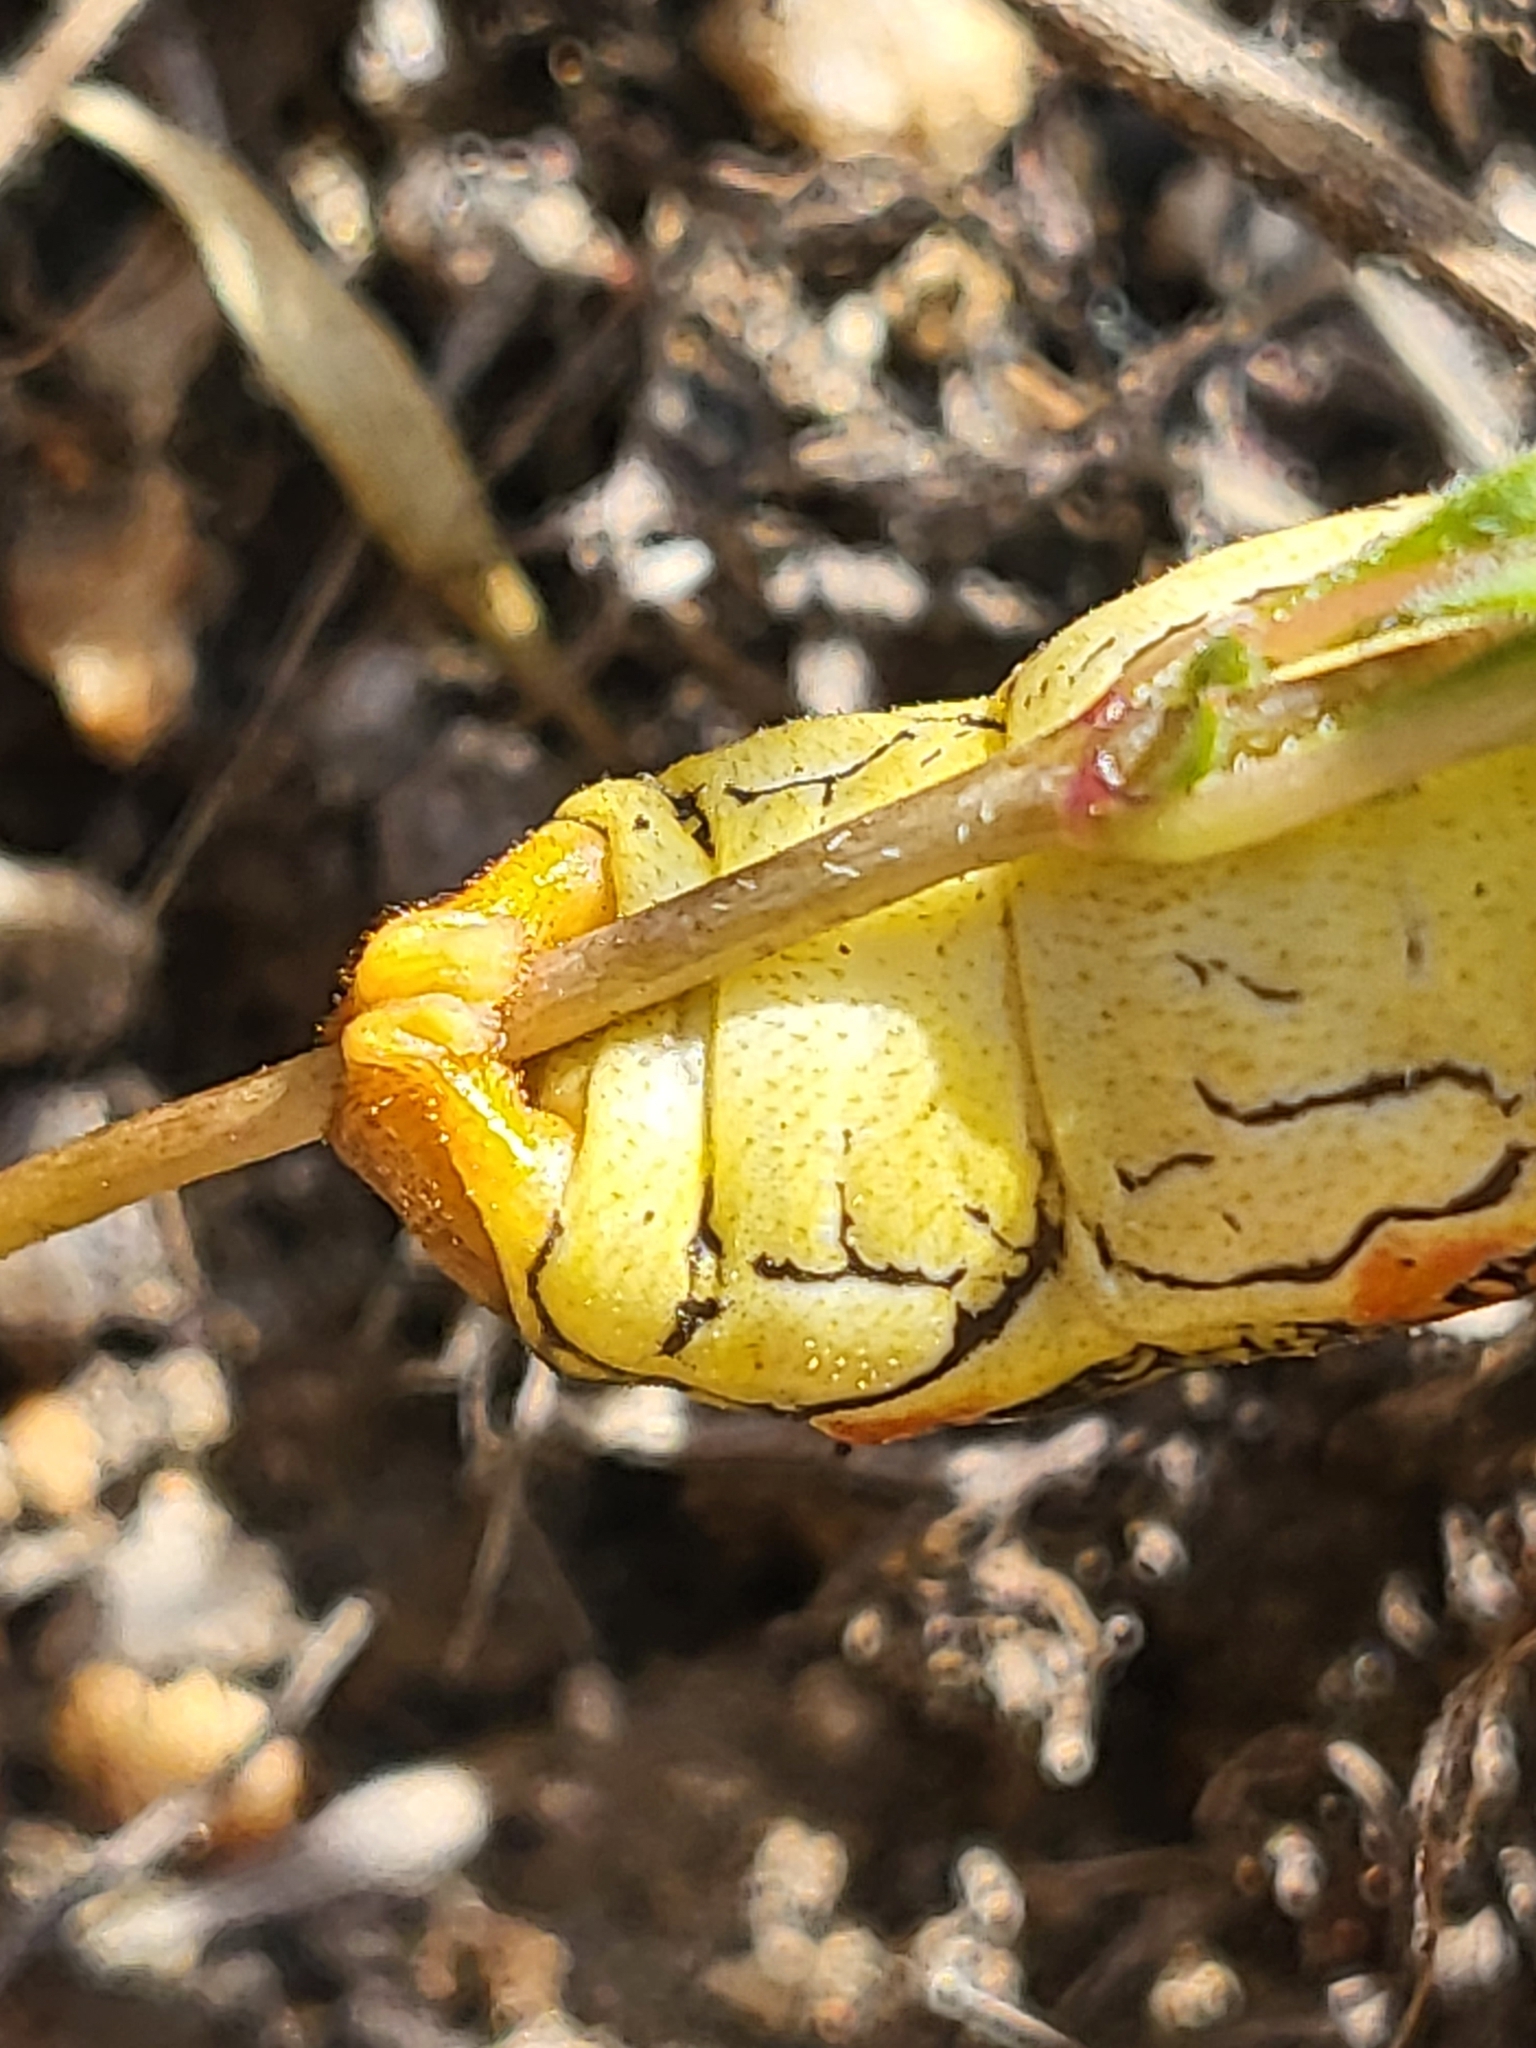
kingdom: Animalia
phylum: Arthropoda
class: Insecta
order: Lepidoptera
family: Sphingidae
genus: Hyles
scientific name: Hyles lineata
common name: White-lined sphinx
